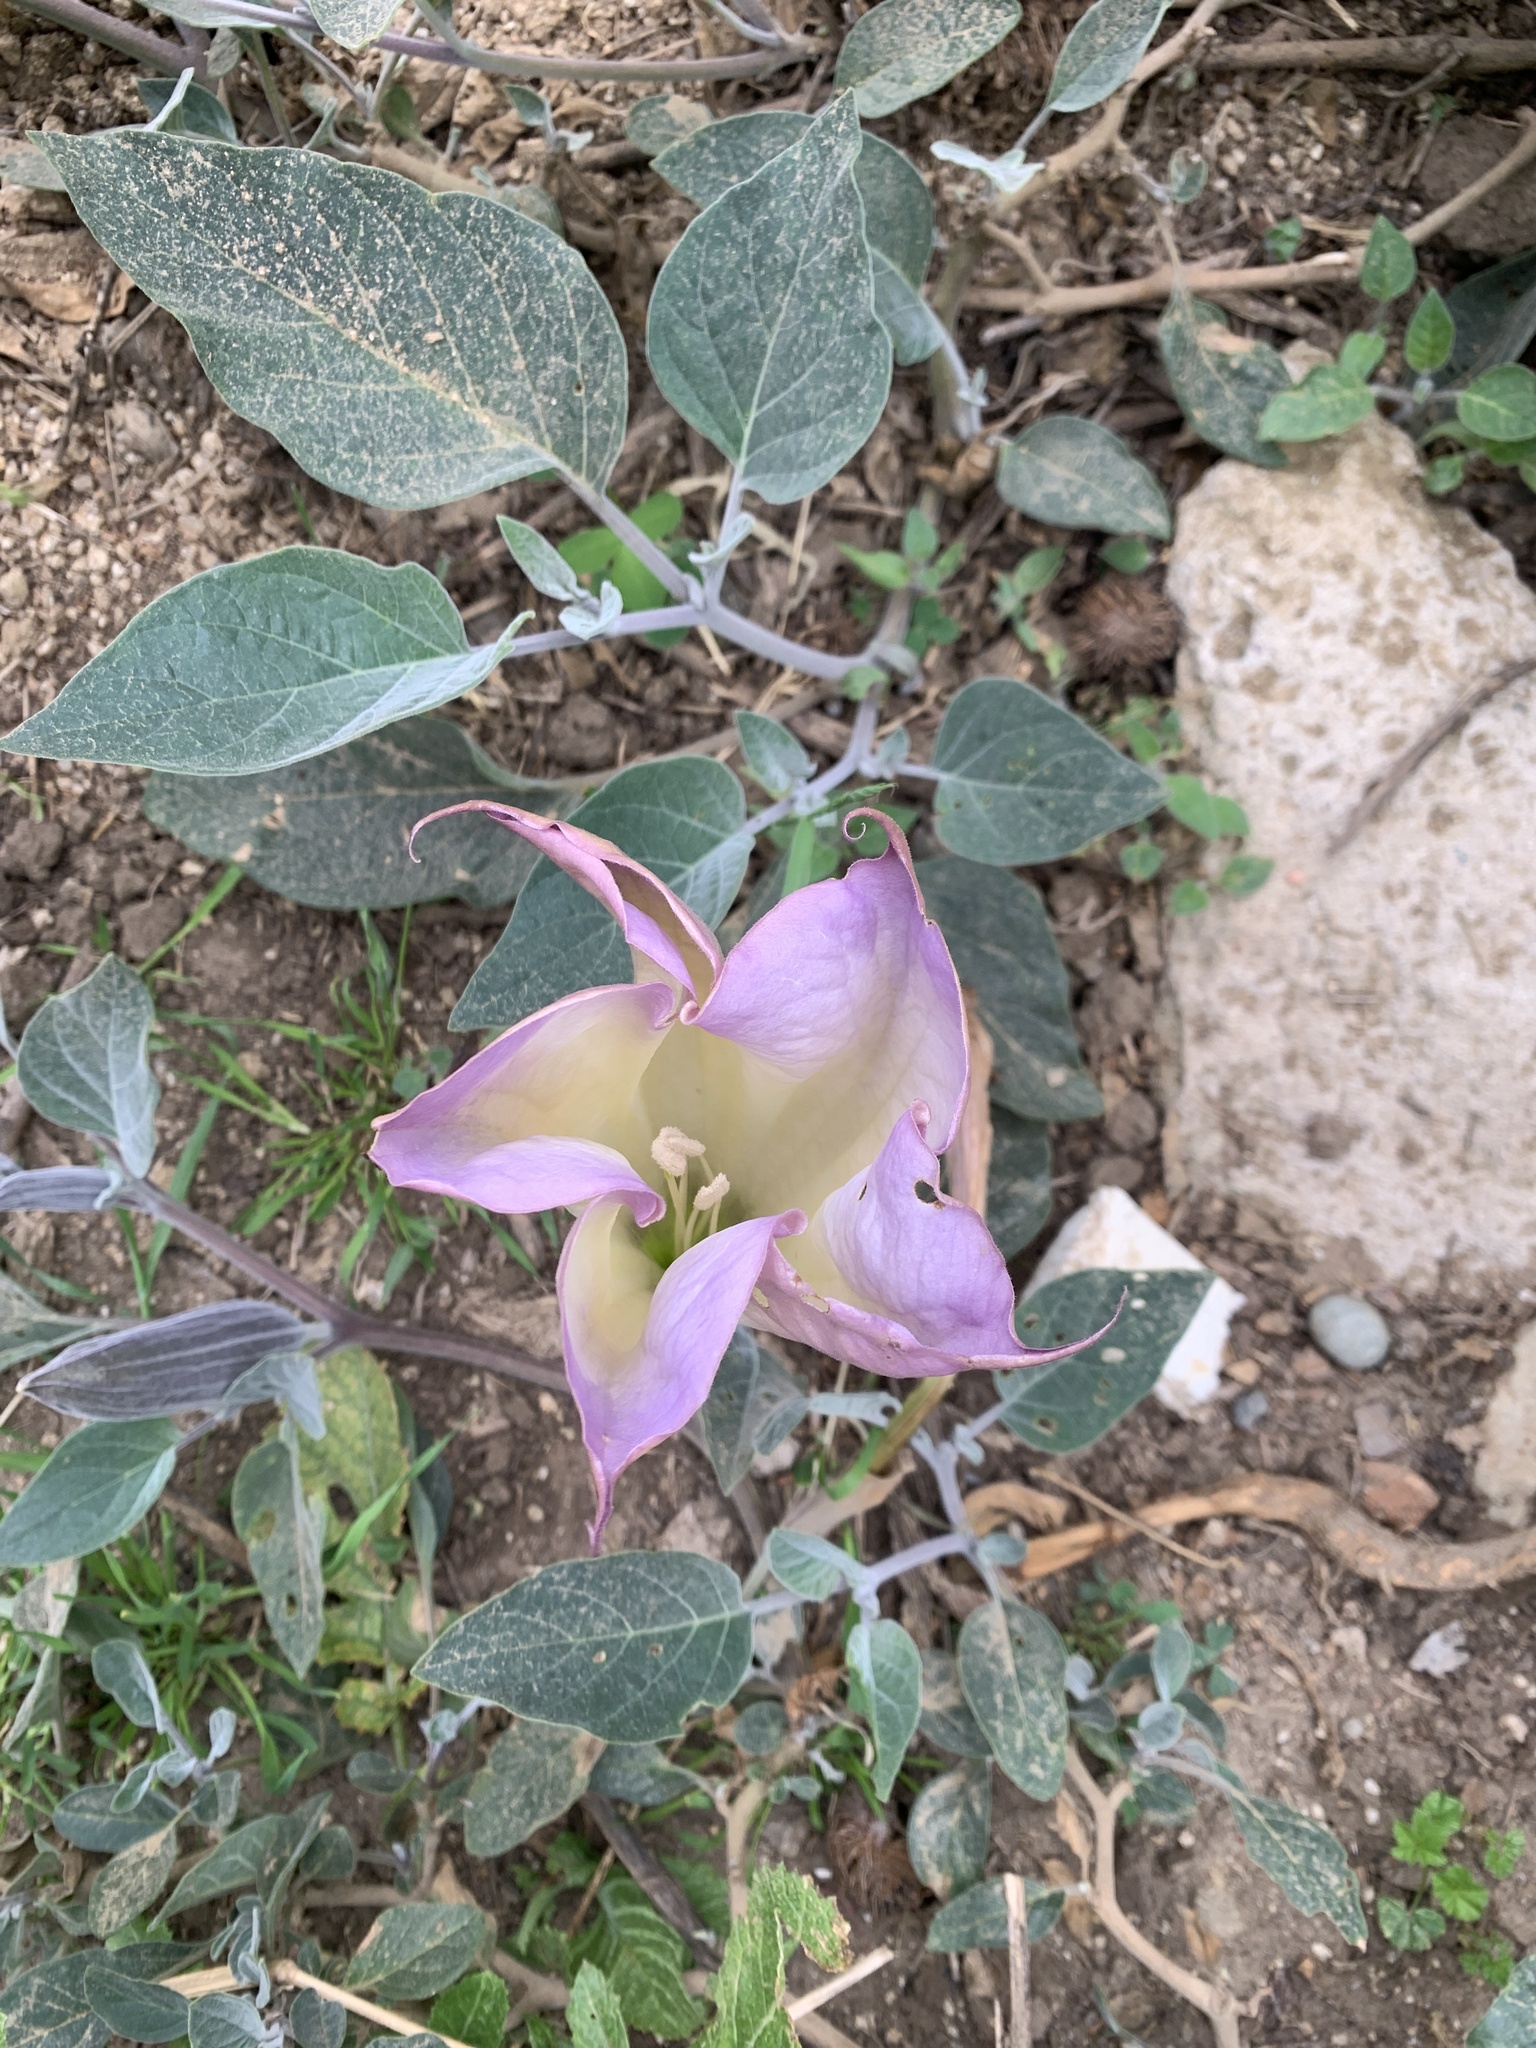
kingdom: Plantae
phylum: Tracheophyta
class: Magnoliopsida
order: Solanales
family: Solanaceae
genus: Datura
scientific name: Datura wrightii
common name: Sacred thorn-apple
